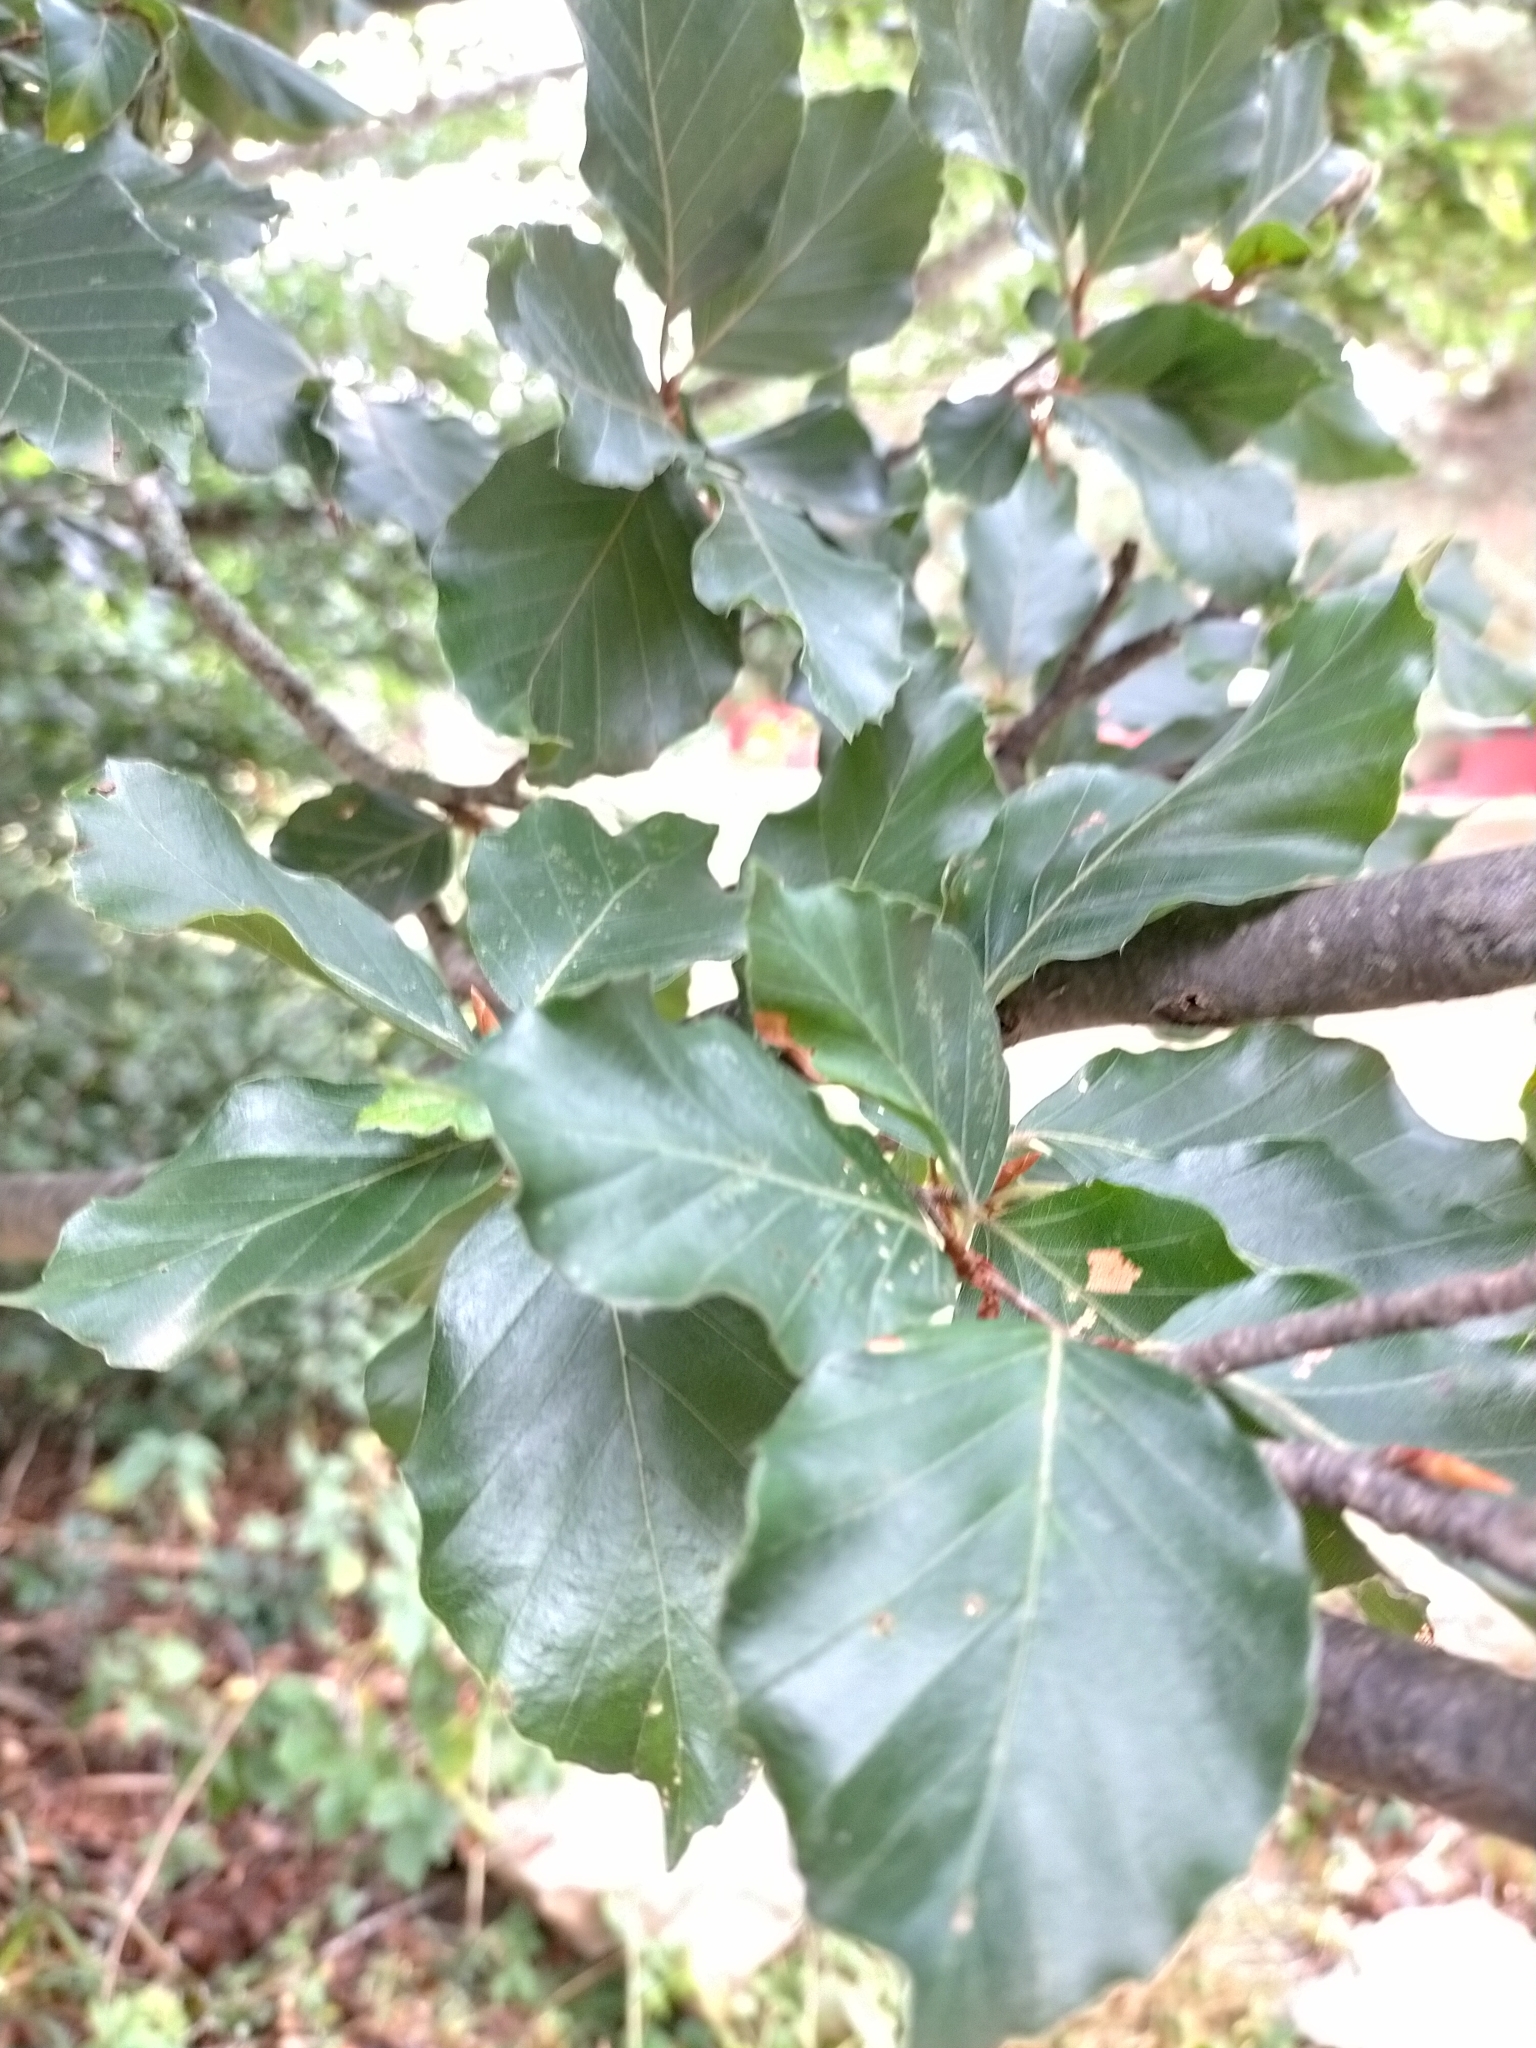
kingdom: Plantae
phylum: Tracheophyta
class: Magnoliopsida
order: Fagales
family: Fagaceae
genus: Fagus
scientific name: Fagus sylvatica
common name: Beech
